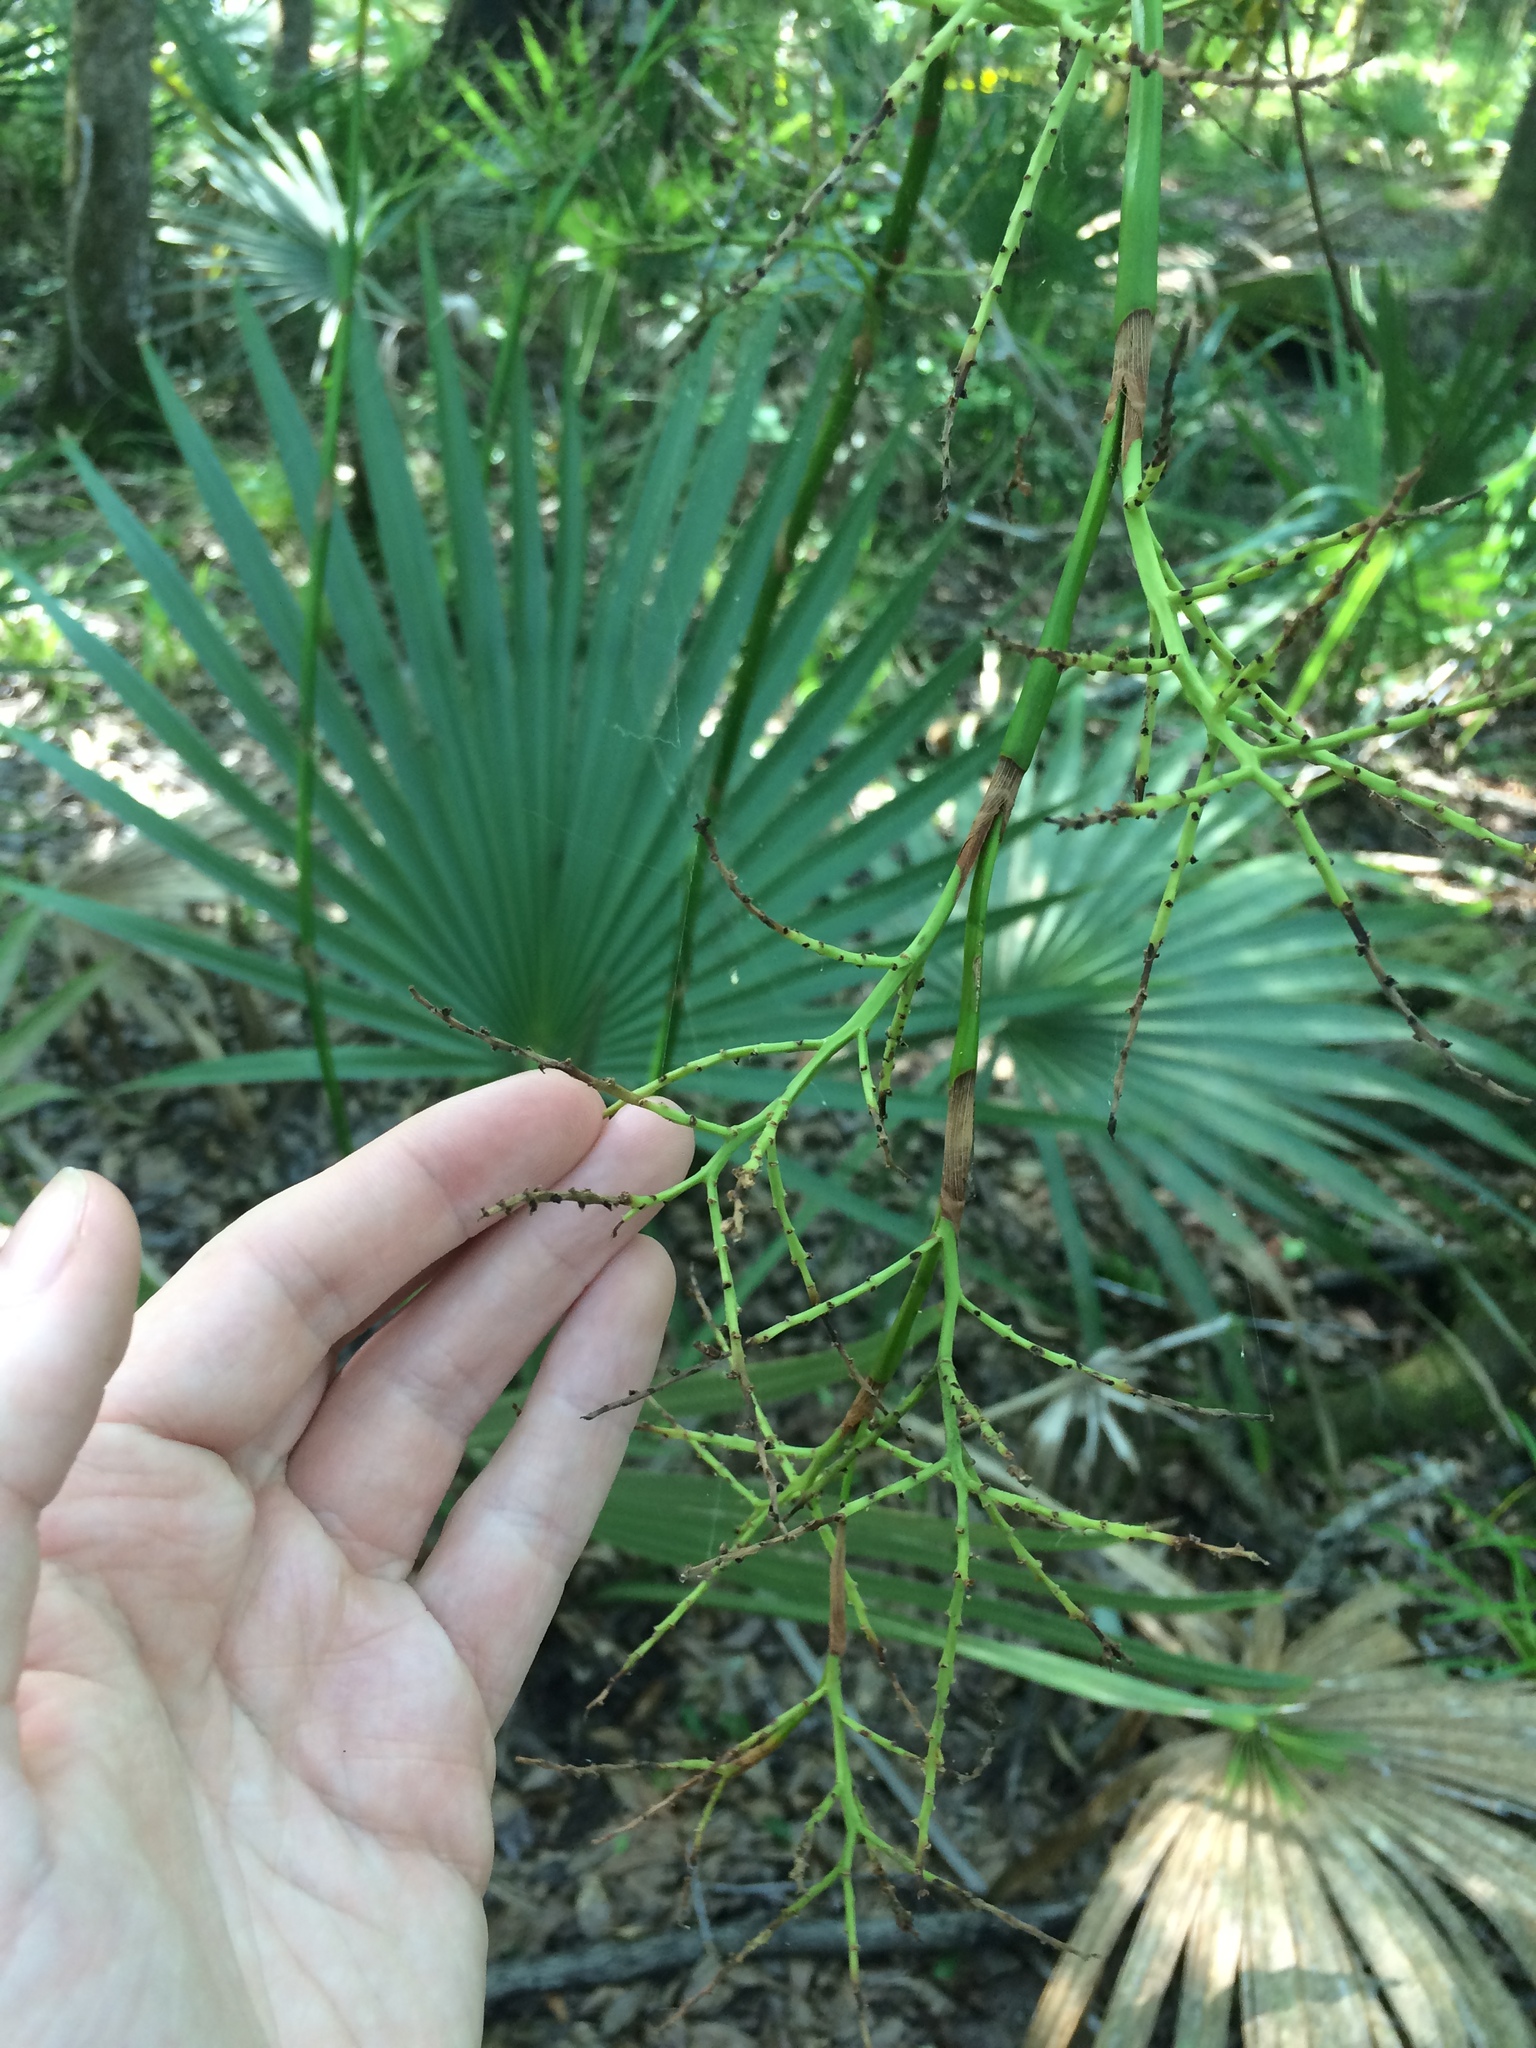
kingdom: Plantae
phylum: Tracheophyta
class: Liliopsida
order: Arecales
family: Arecaceae
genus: Sabal
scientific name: Sabal minor
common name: Dwarf palmetto
